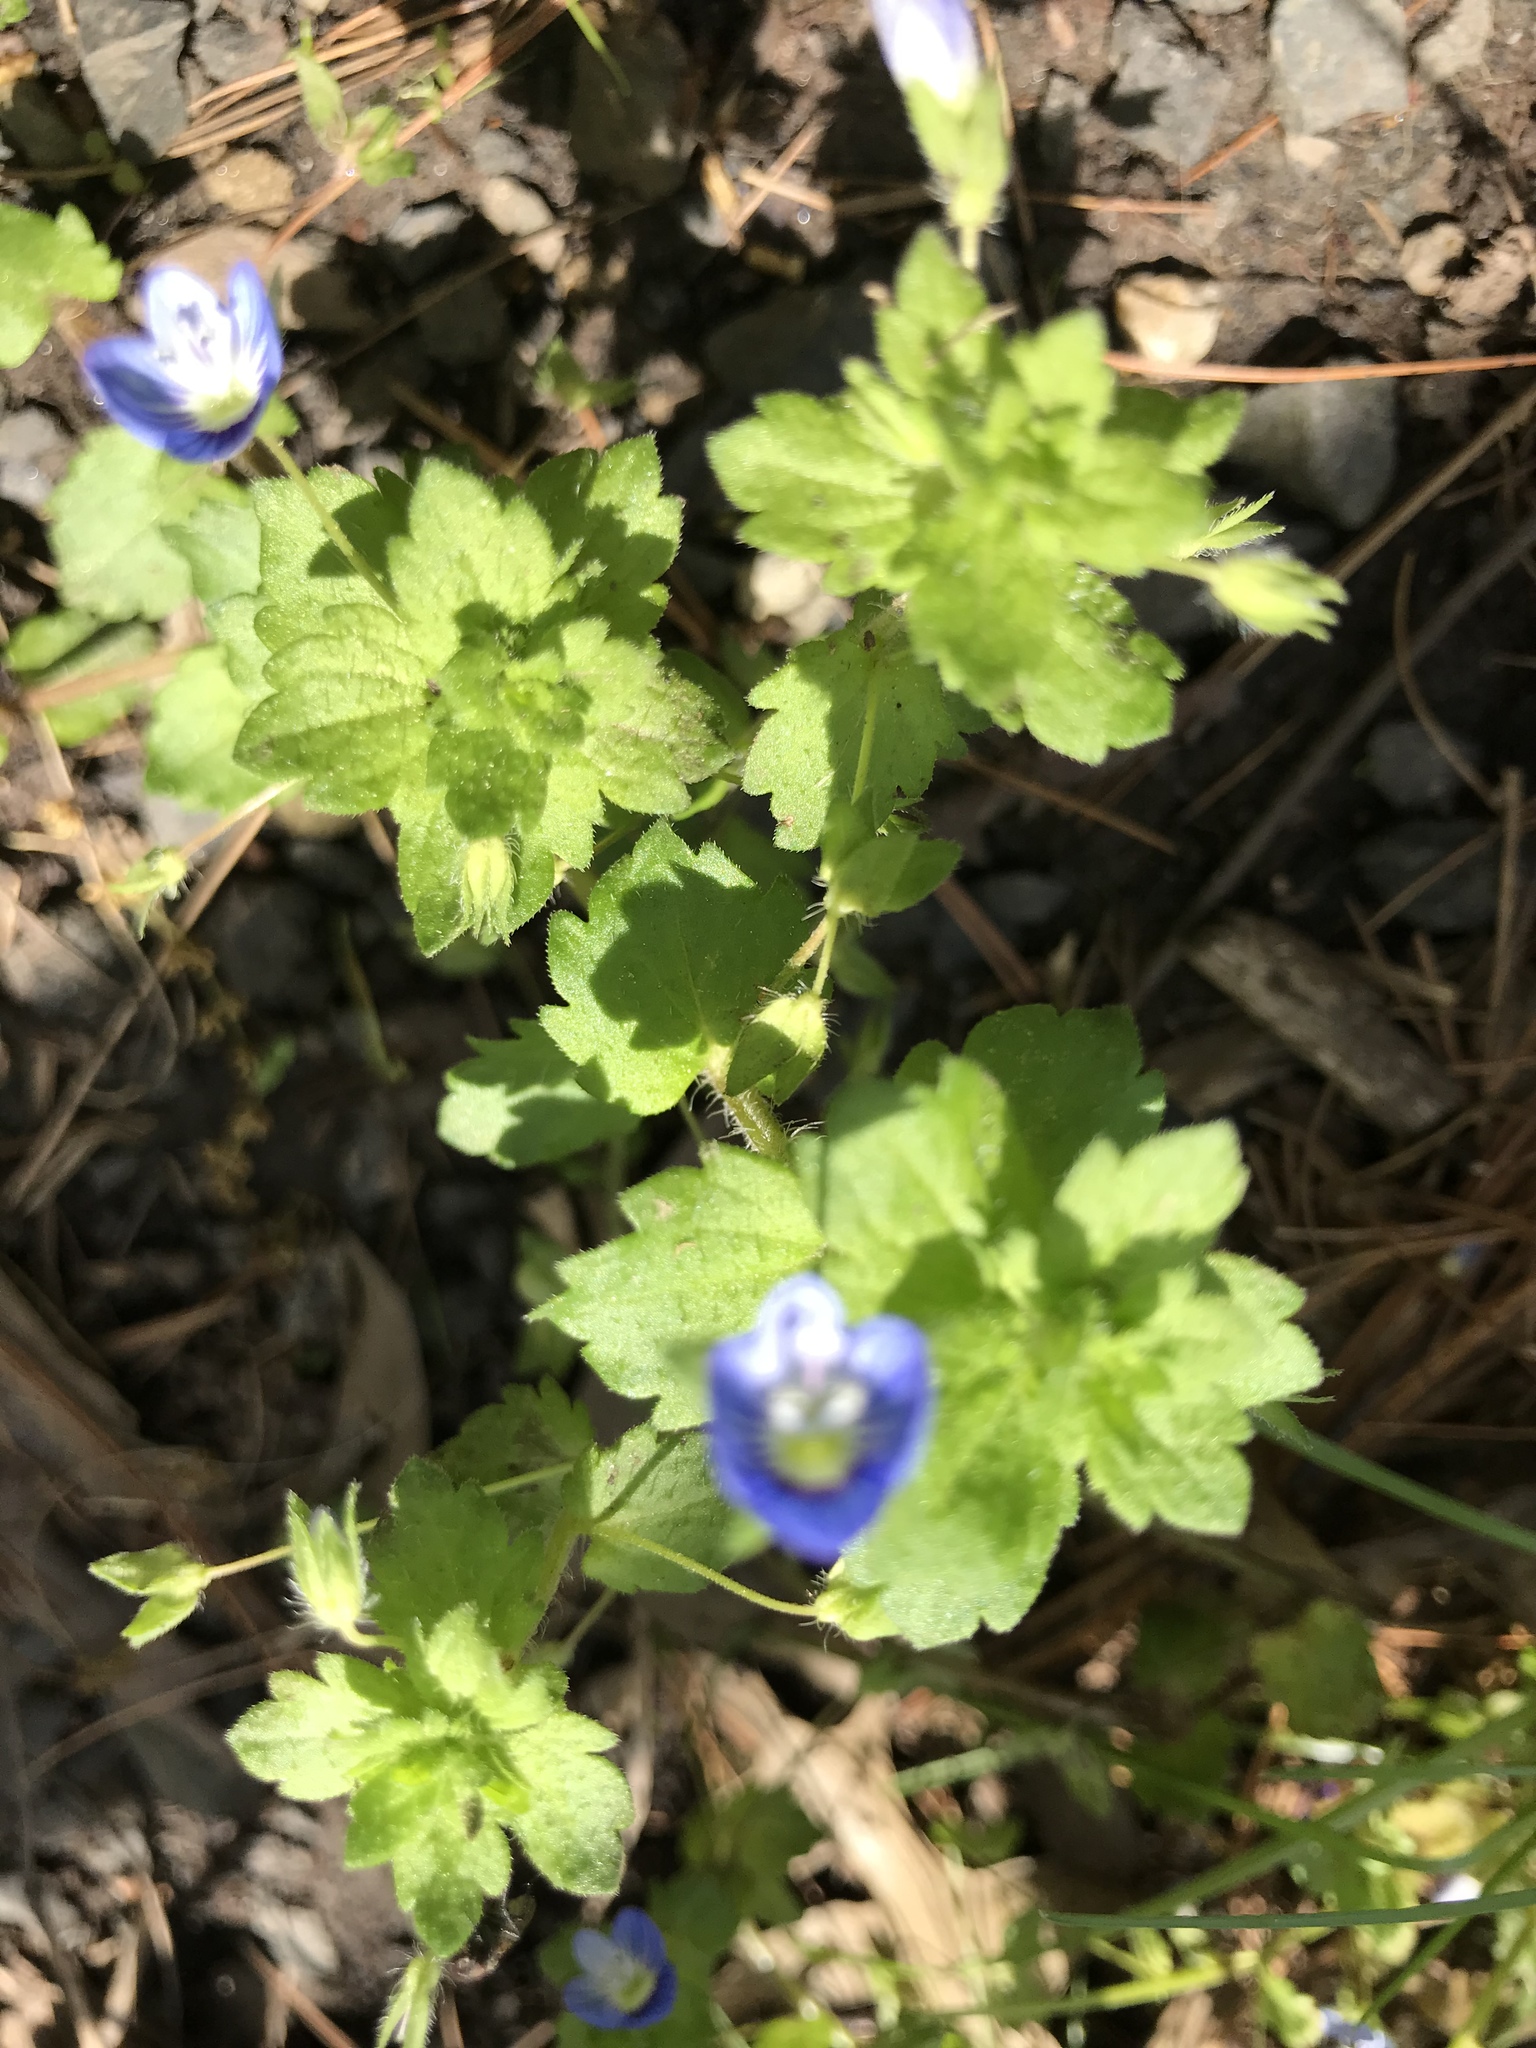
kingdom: Plantae
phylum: Tracheophyta
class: Magnoliopsida
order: Lamiales
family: Plantaginaceae
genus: Veronica
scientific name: Veronica persica
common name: Common field-speedwell
